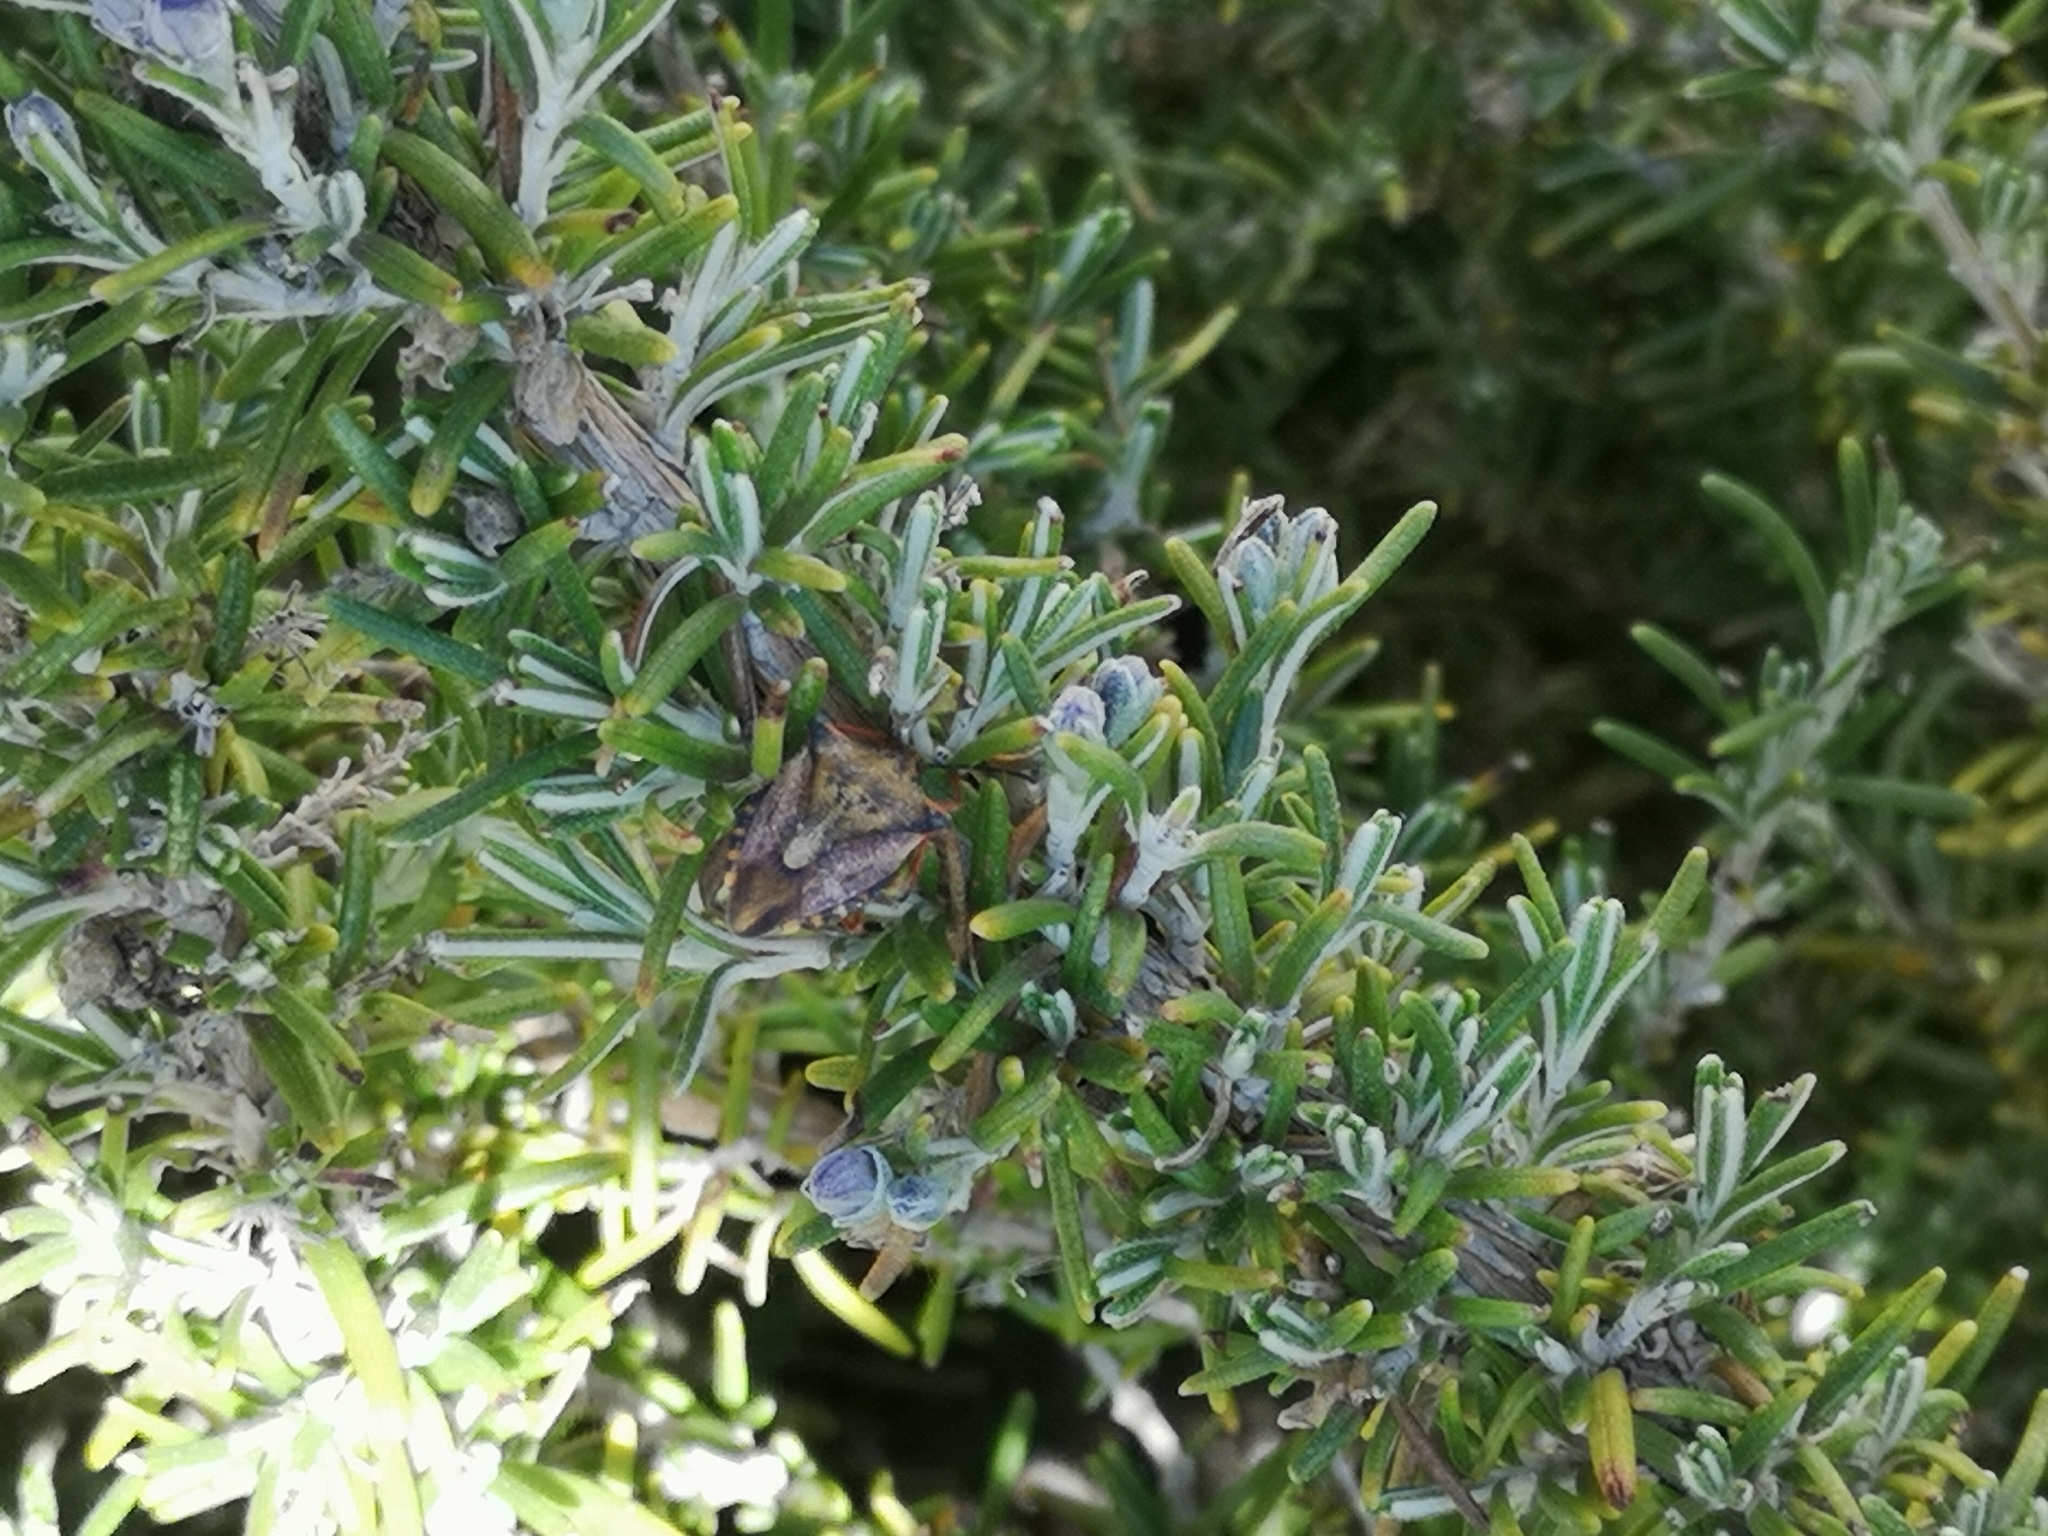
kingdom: Animalia
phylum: Arthropoda
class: Insecta
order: Hemiptera
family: Pentatomidae
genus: Carpocoris
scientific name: Carpocoris mediterraneus
